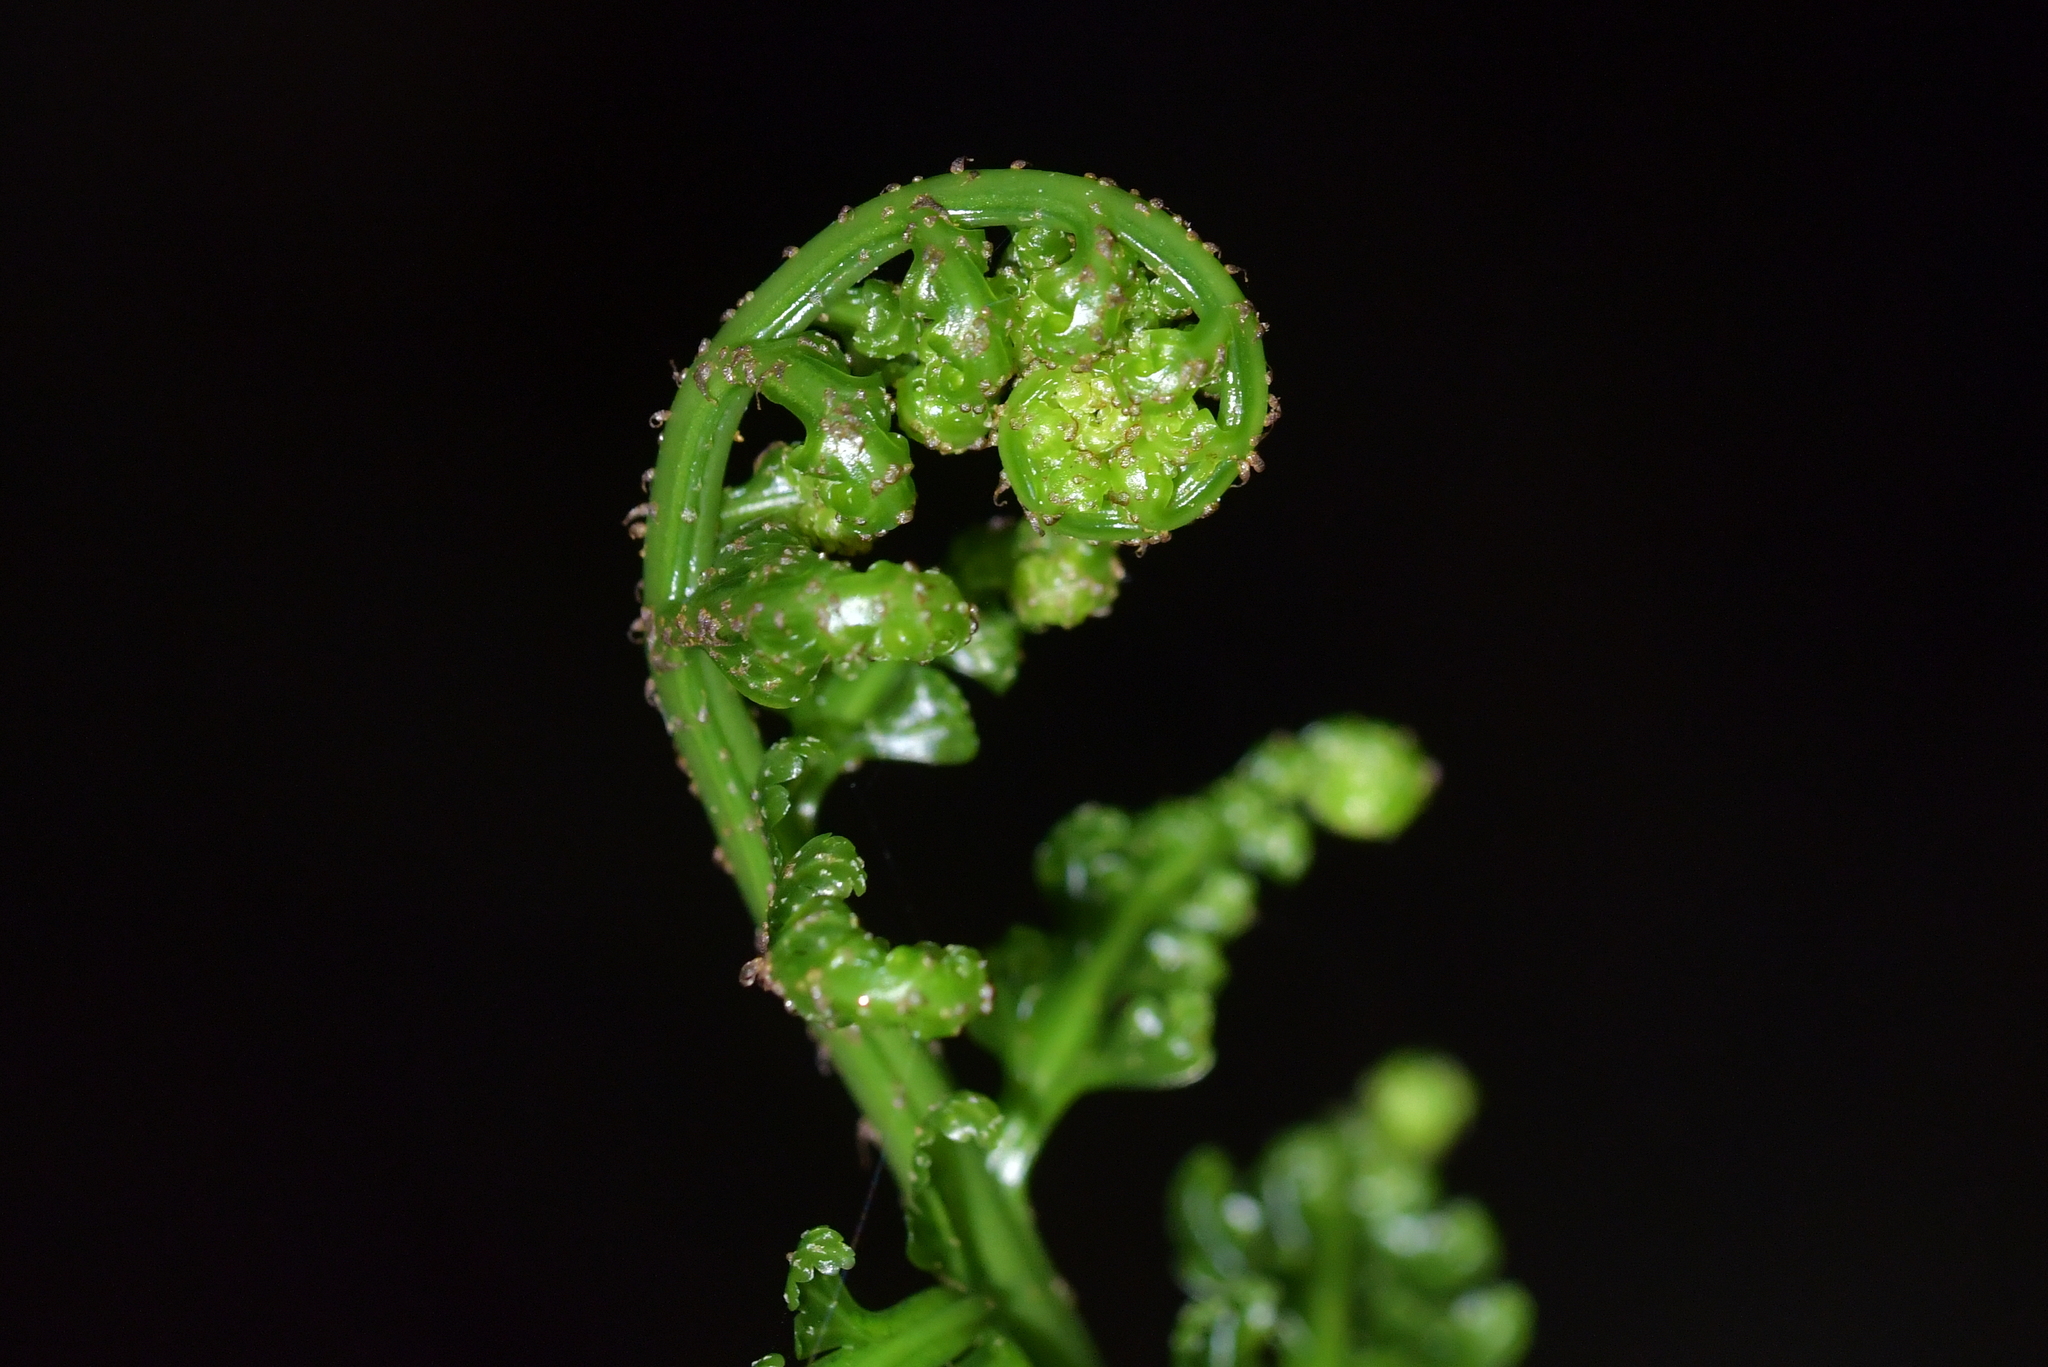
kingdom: Plantae
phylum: Tracheophyta
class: Polypodiopsida
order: Polypodiales
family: Aspleniaceae
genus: Asplenium
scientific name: Asplenium bulbiferum
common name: Mother fern
